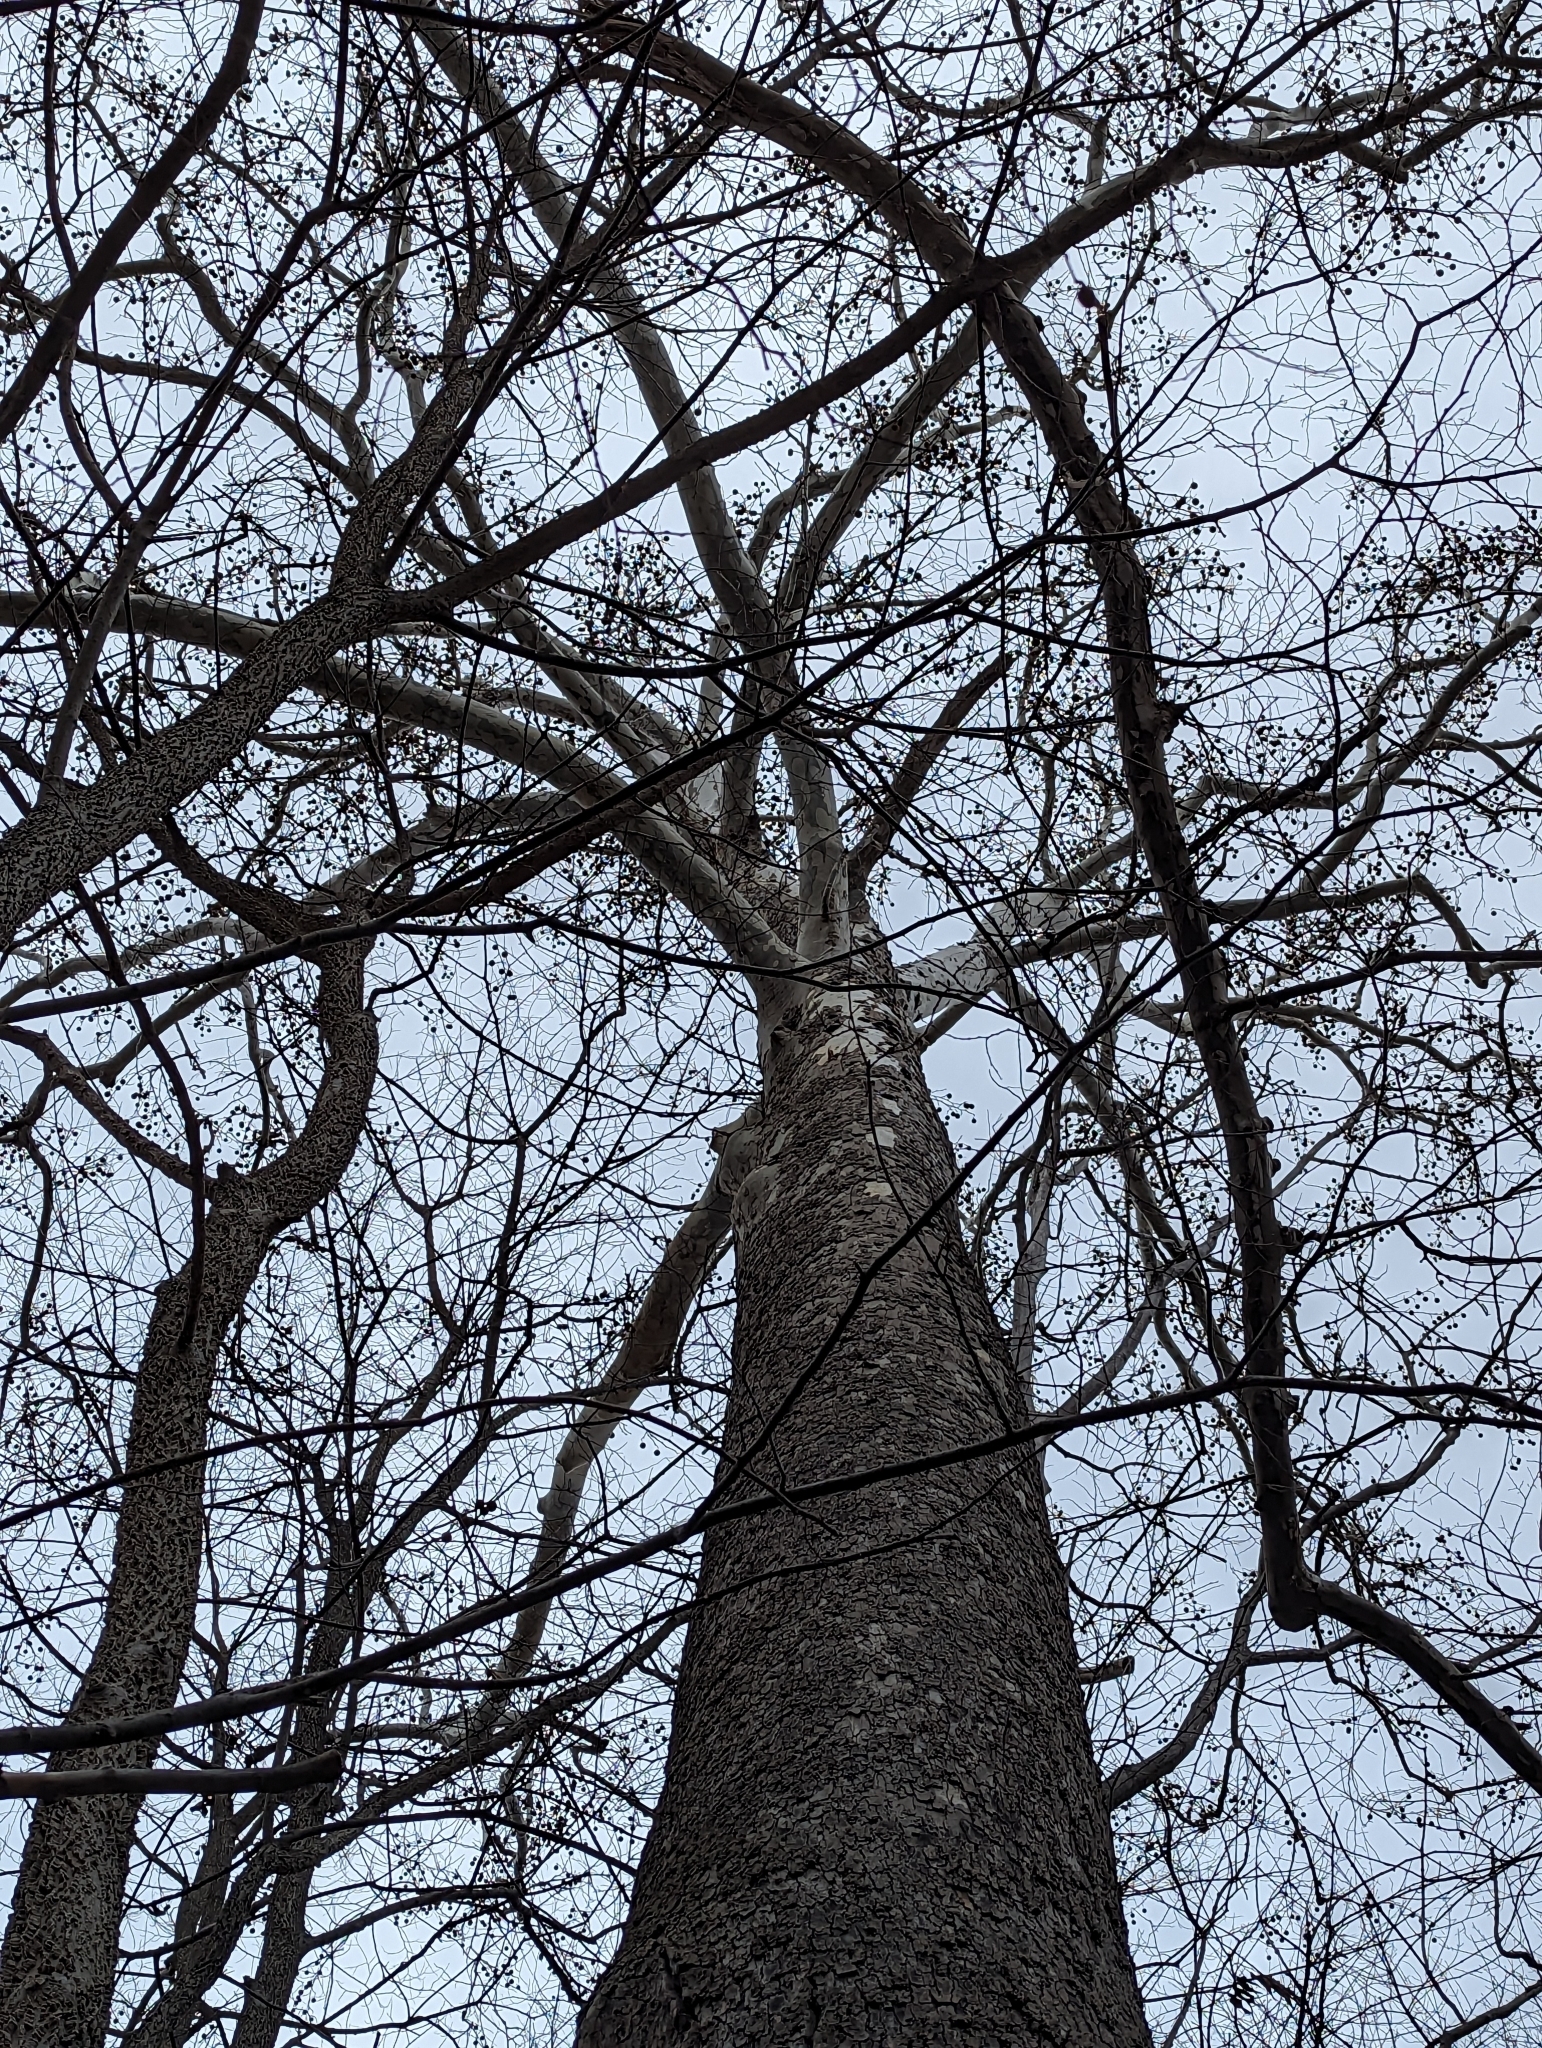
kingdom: Plantae
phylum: Tracheophyta
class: Magnoliopsida
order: Proteales
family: Platanaceae
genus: Platanus
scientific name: Platanus occidentalis
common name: American sycamore
